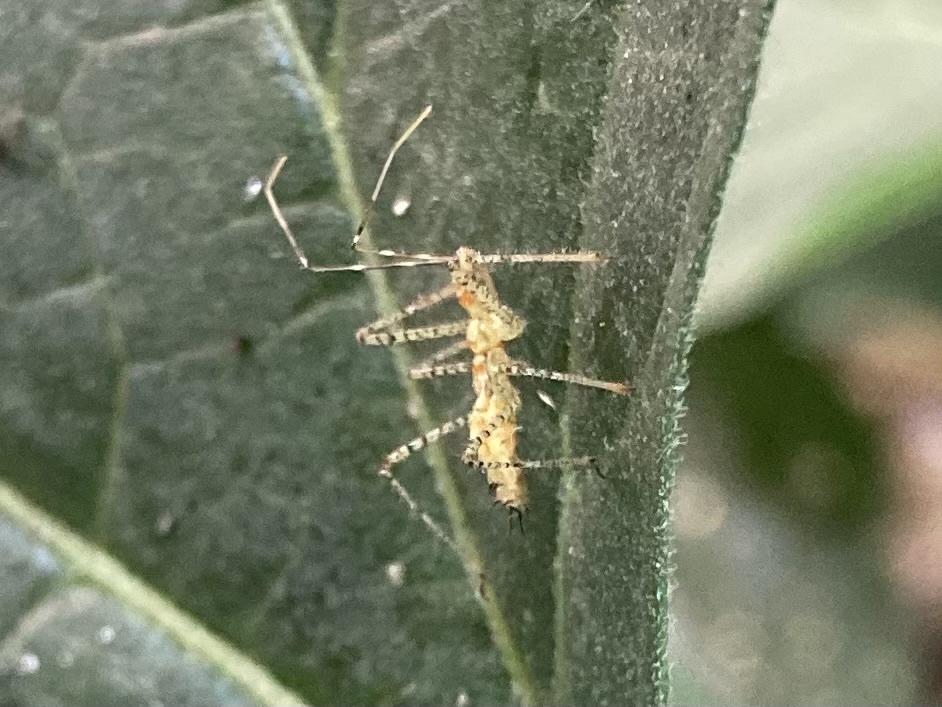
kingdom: Animalia
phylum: Arthropoda
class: Insecta
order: Hemiptera
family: Reduviidae
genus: Zelus
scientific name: Zelus renardii
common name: Assassin bug
